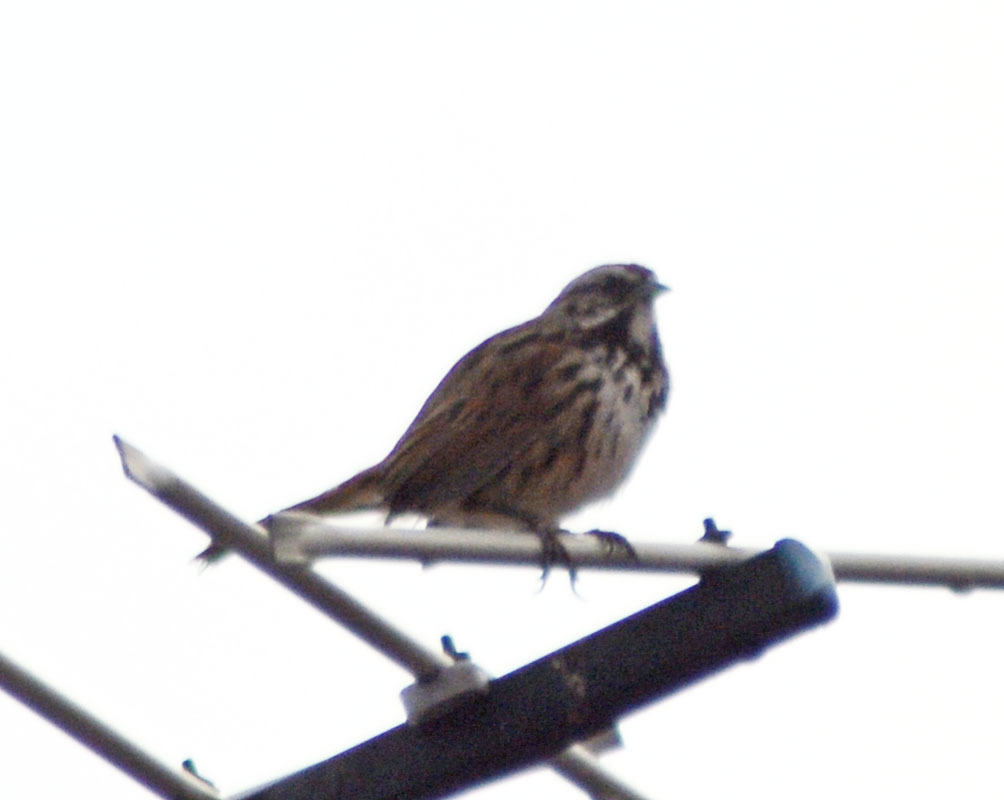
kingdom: Animalia
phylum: Chordata
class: Aves
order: Passeriformes
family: Passerellidae
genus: Melospiza
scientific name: Melospiza melodia
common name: Song sparrow
